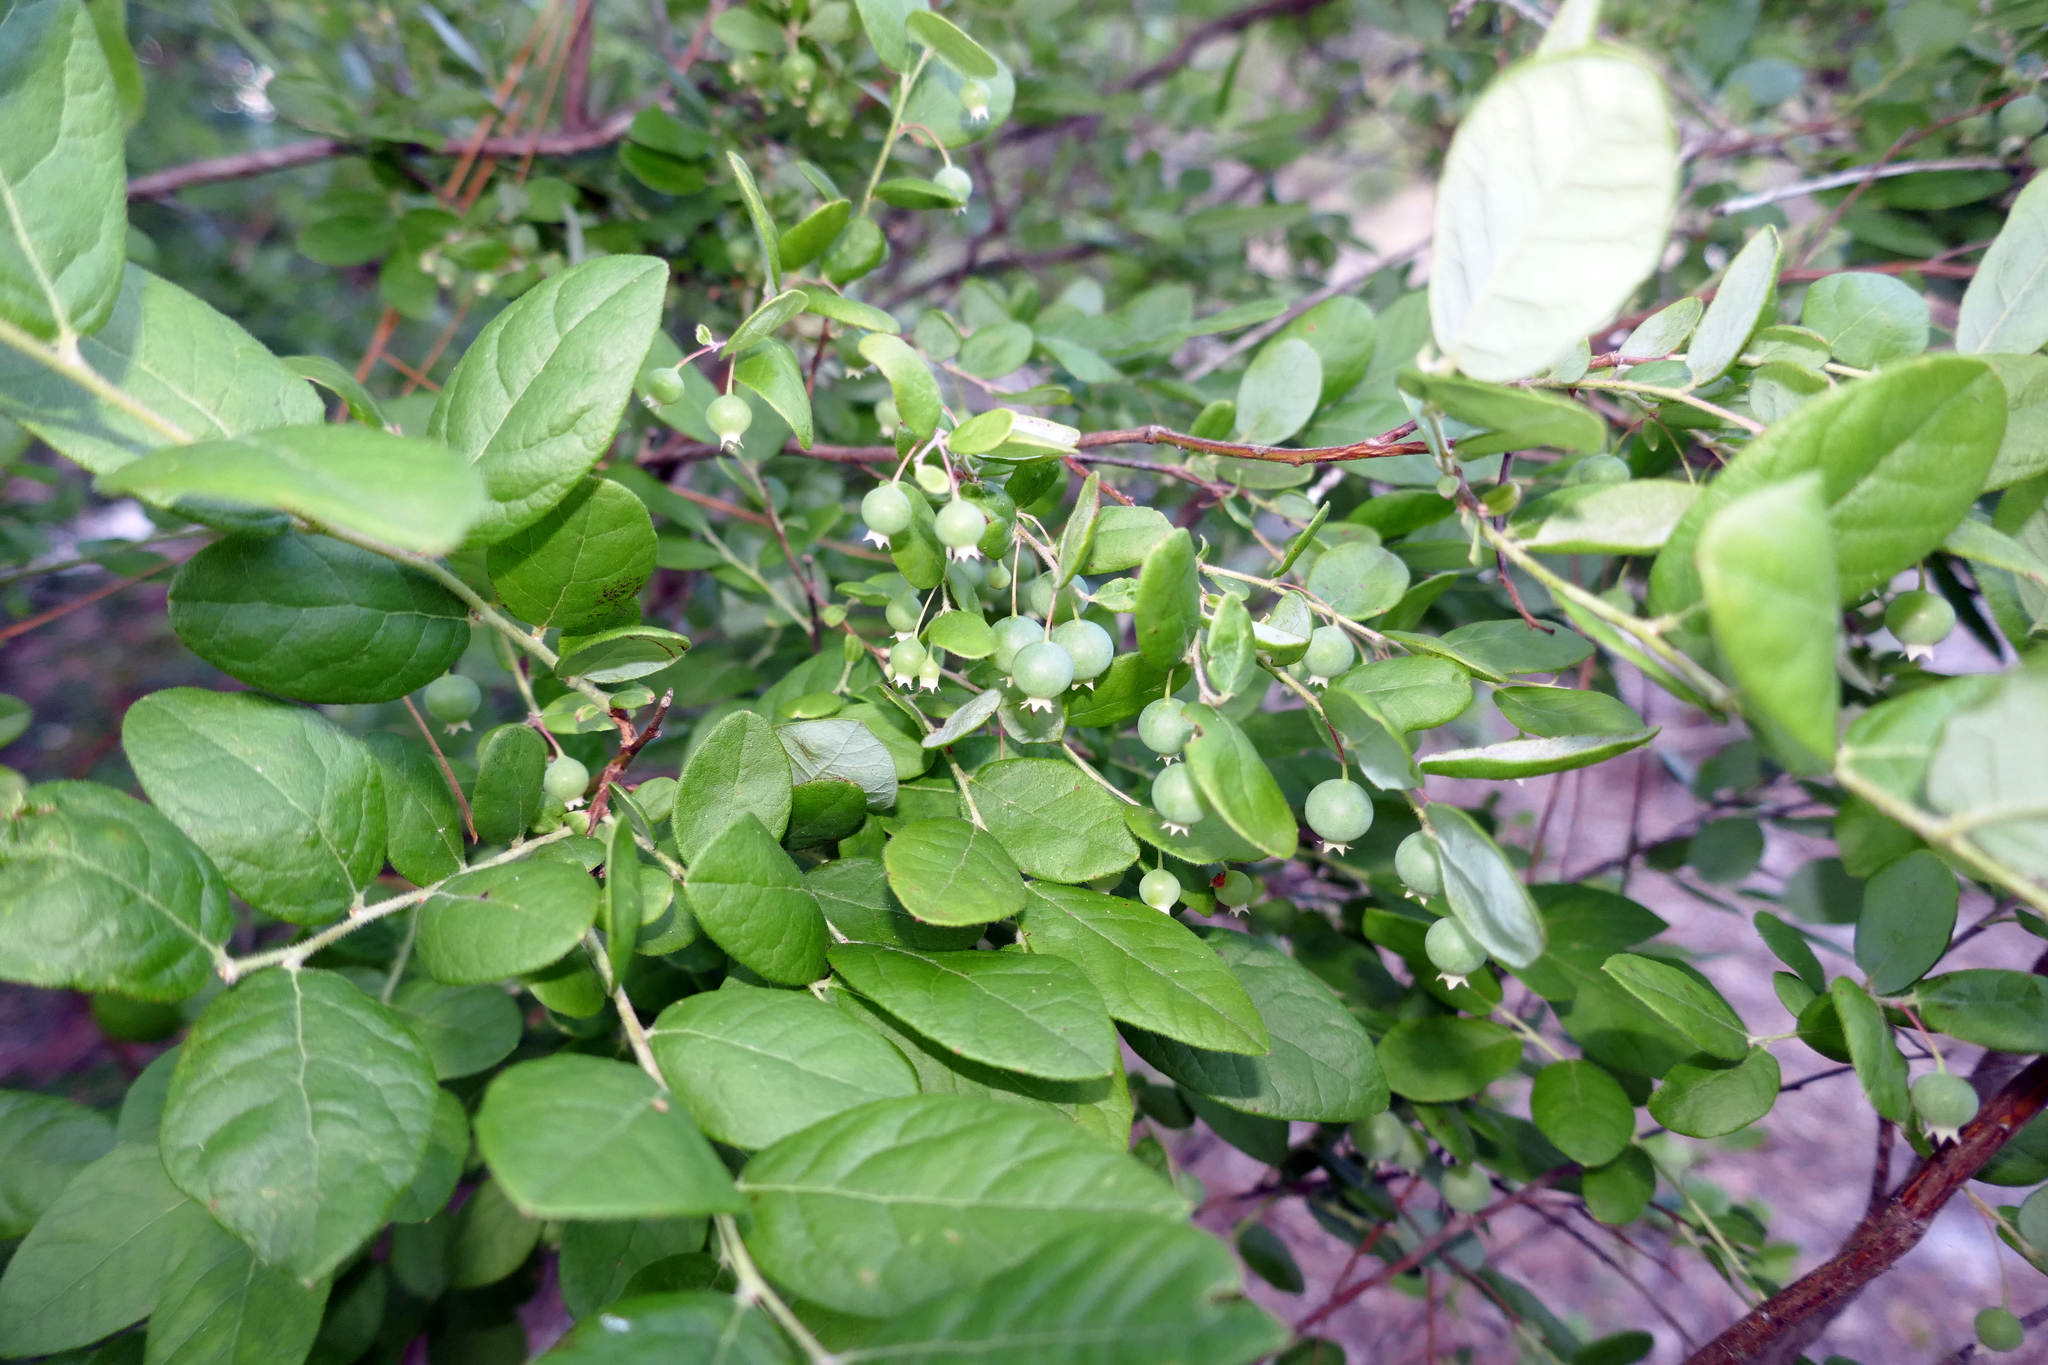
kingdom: Plantae
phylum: Tracheophyta
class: Magnoliopsida
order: Ericales
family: Ericaceae
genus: Vaccinium
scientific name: Vaccinium stamineum
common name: Deerberry
